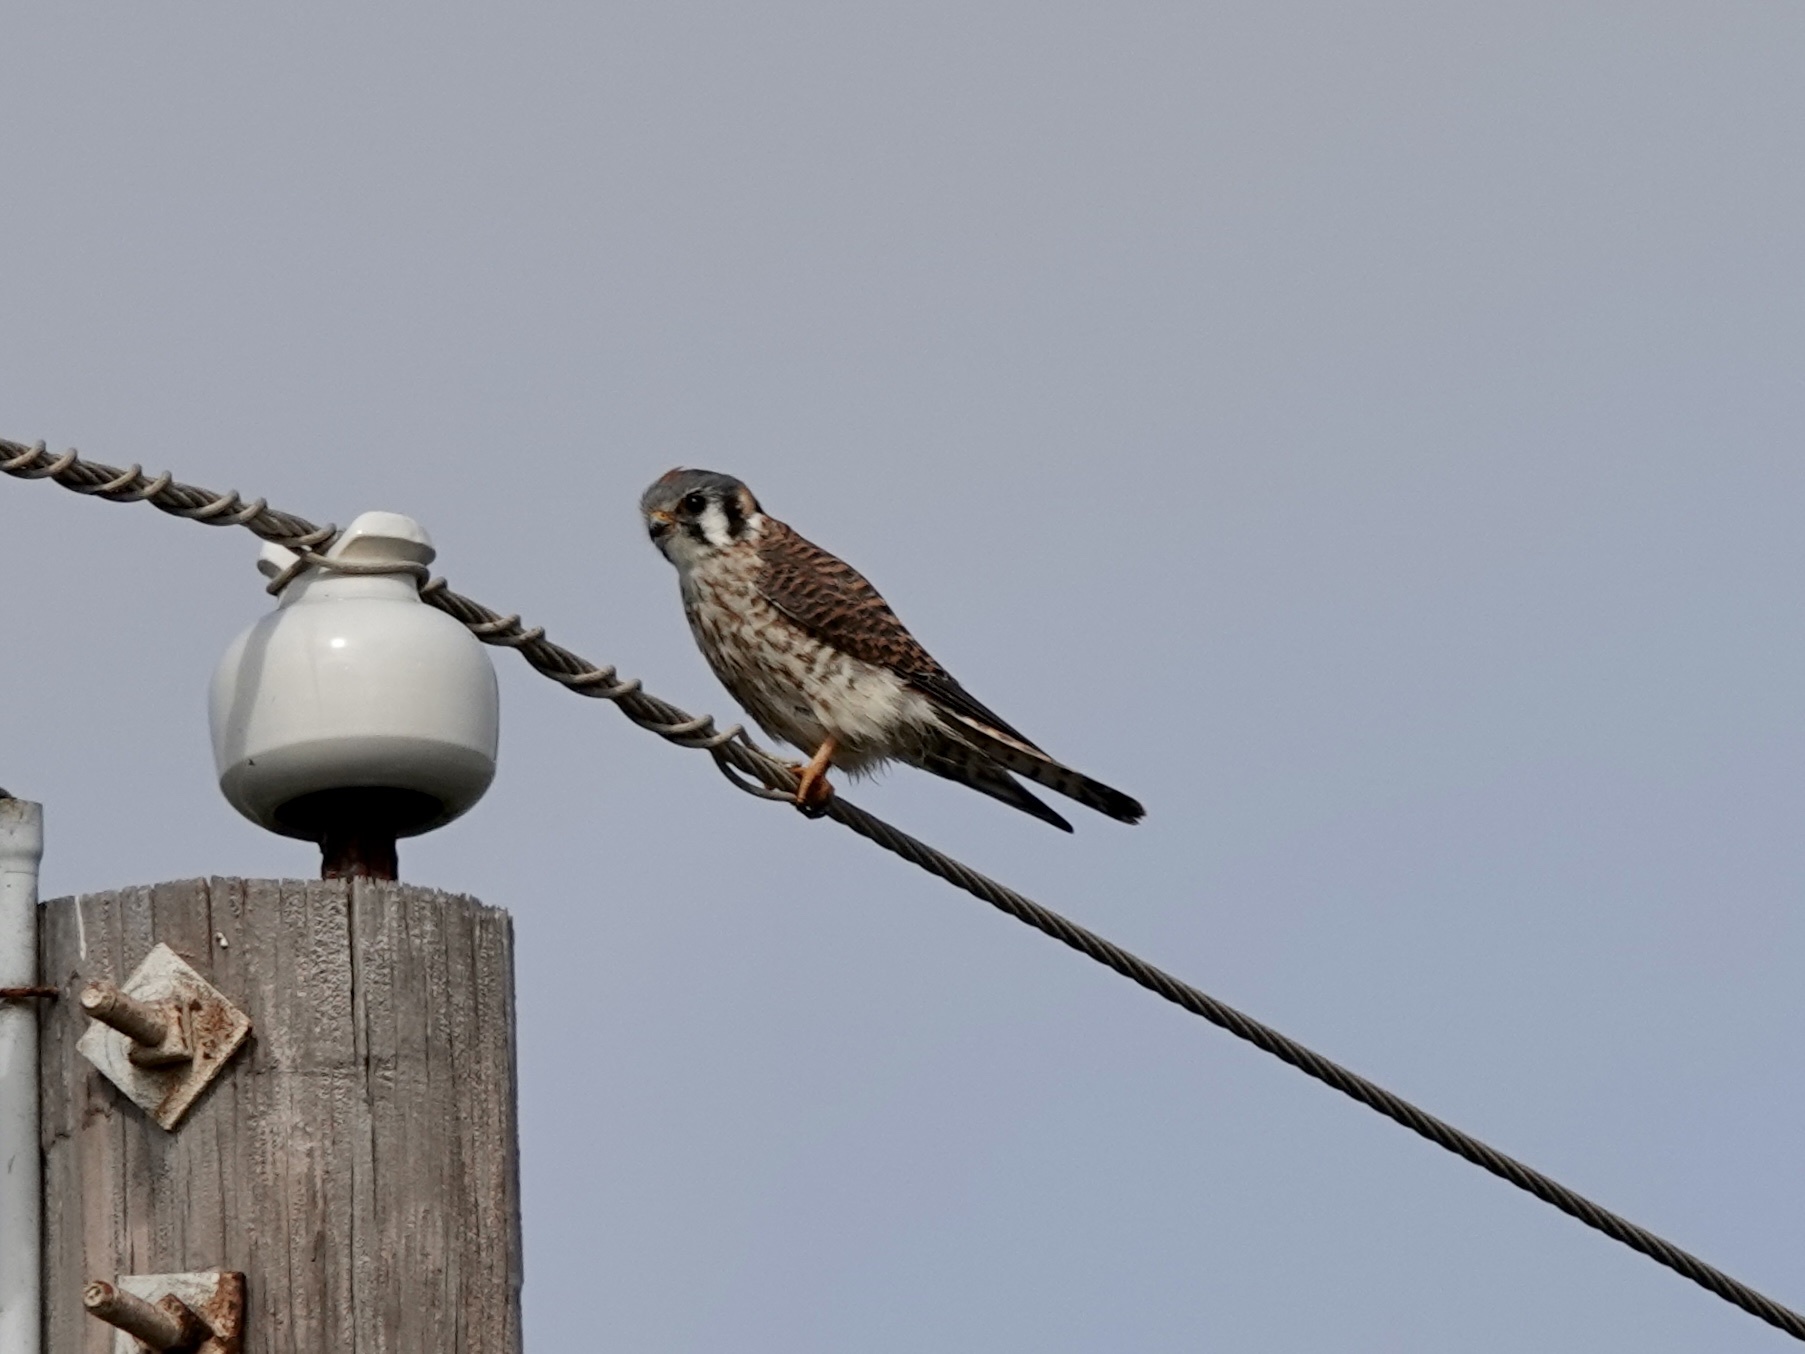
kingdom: Animalia
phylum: Chordata
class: Aves
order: Falconiformes
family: Falconidae
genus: Falco
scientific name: Falco sparverius
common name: American kestrel
